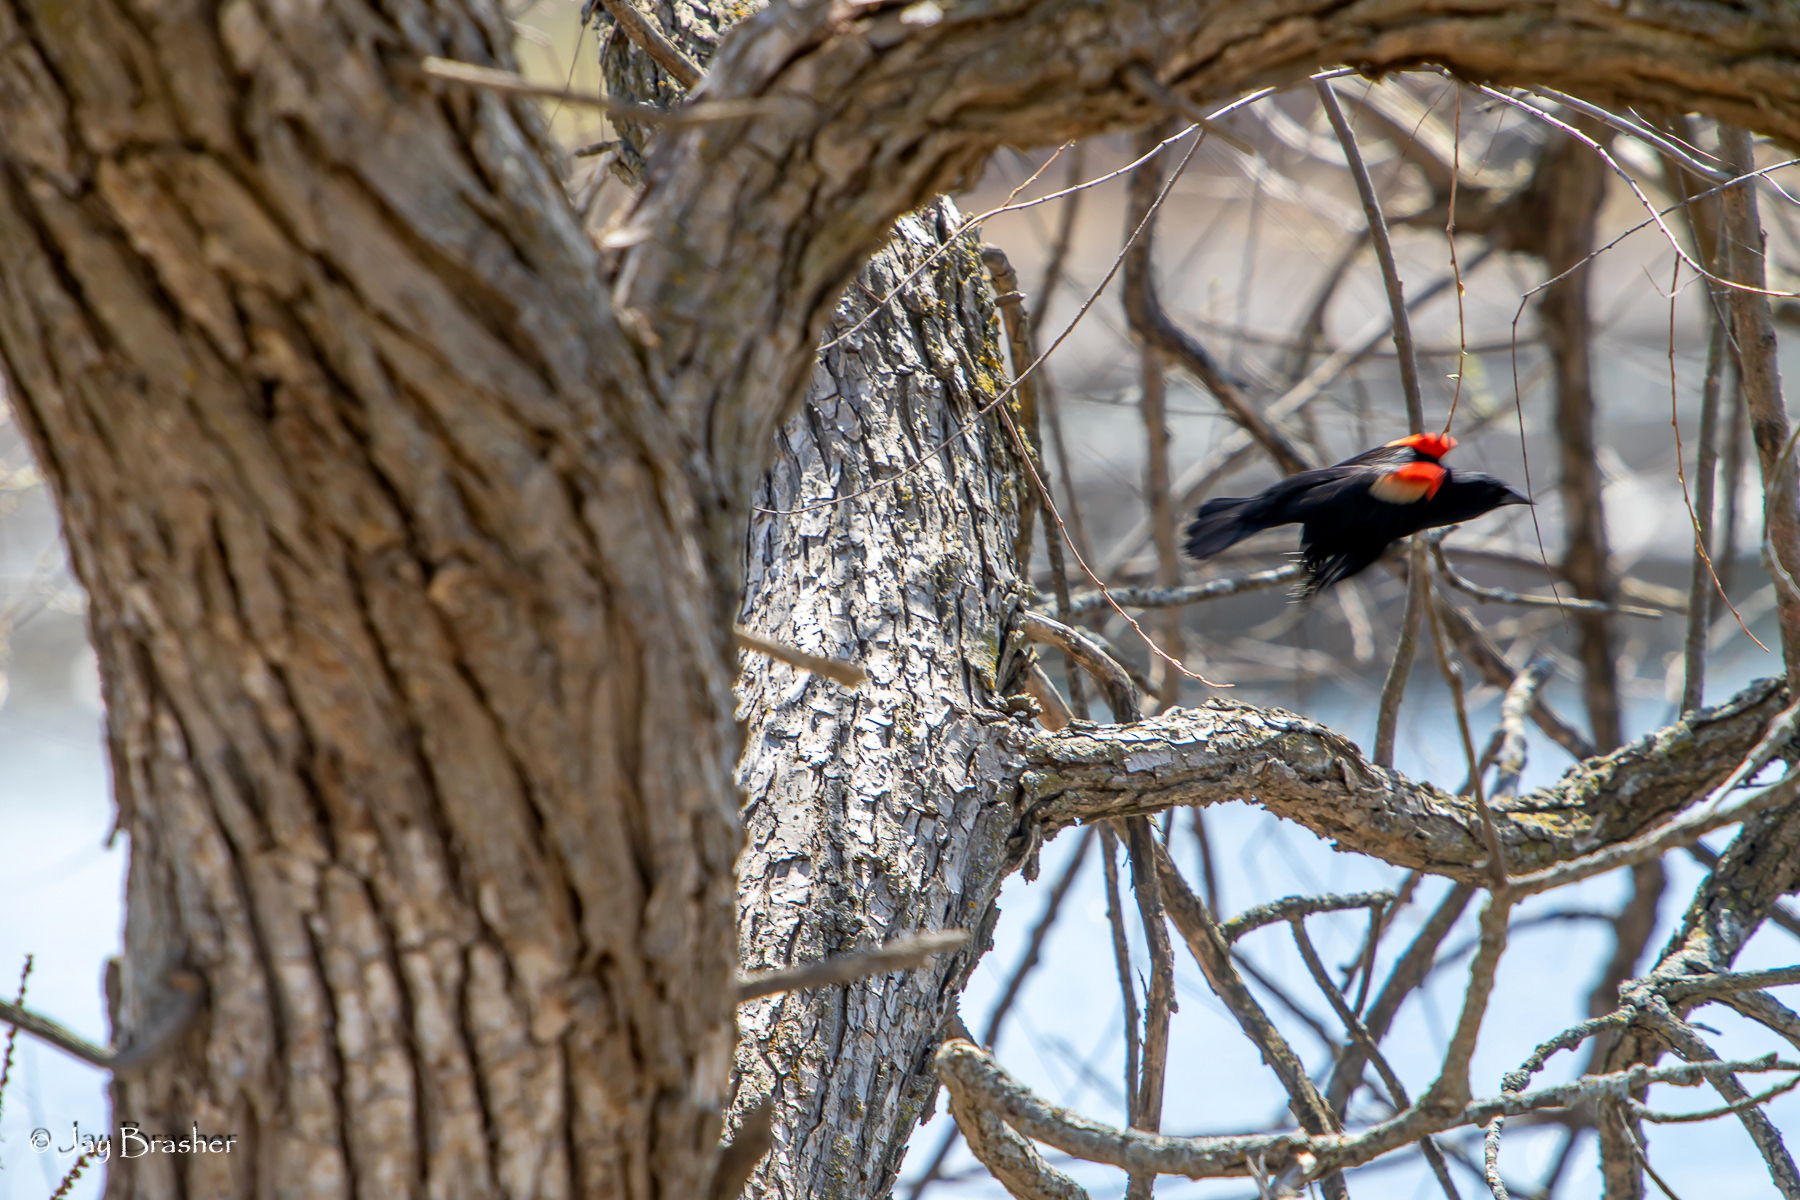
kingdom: Animalia
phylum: Chordata
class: Aves
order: Passeriformes
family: Icteridae
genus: Agelaius
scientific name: Agelaius phoeniceus
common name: Red-winged blackbird
